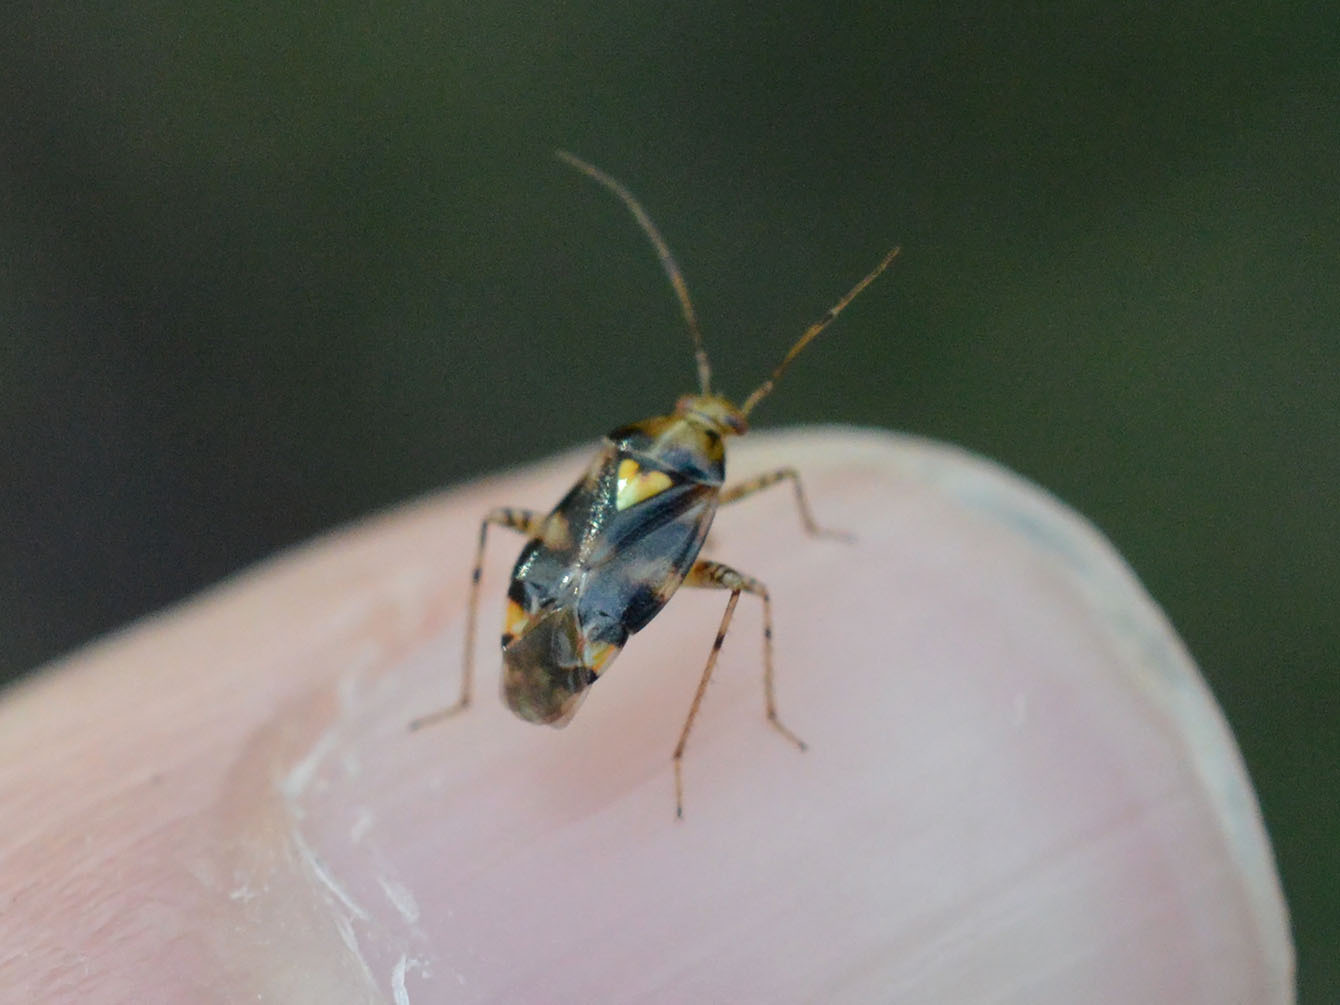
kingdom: Animalia
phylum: Arthropoda
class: Insecta
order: Hemiptera
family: Miridae
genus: Liocoris
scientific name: Liocoris tripustulatus
